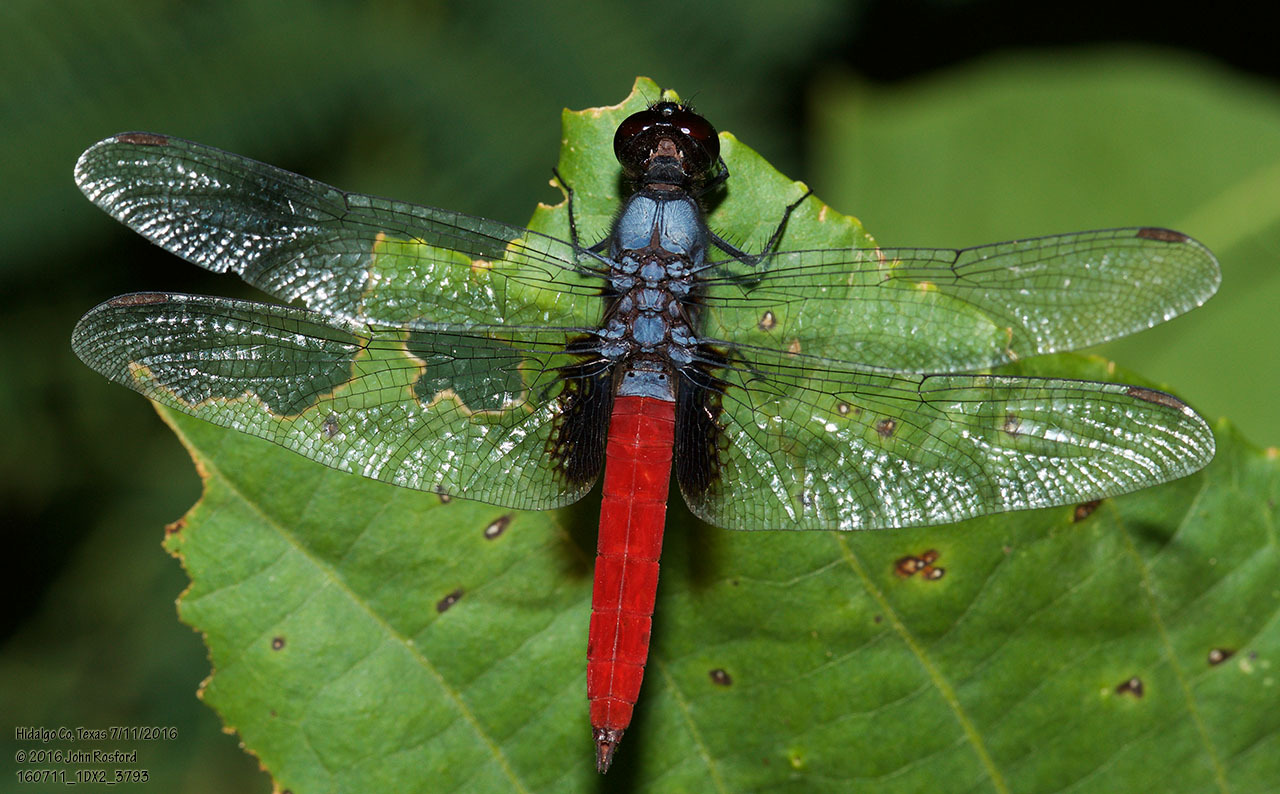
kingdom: Animalia
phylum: Arthropoda
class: Insecta
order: Odonata
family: Libellulidae
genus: Planiplax
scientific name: Planiplax sanguiniventris
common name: Mexican scarlet-tail
